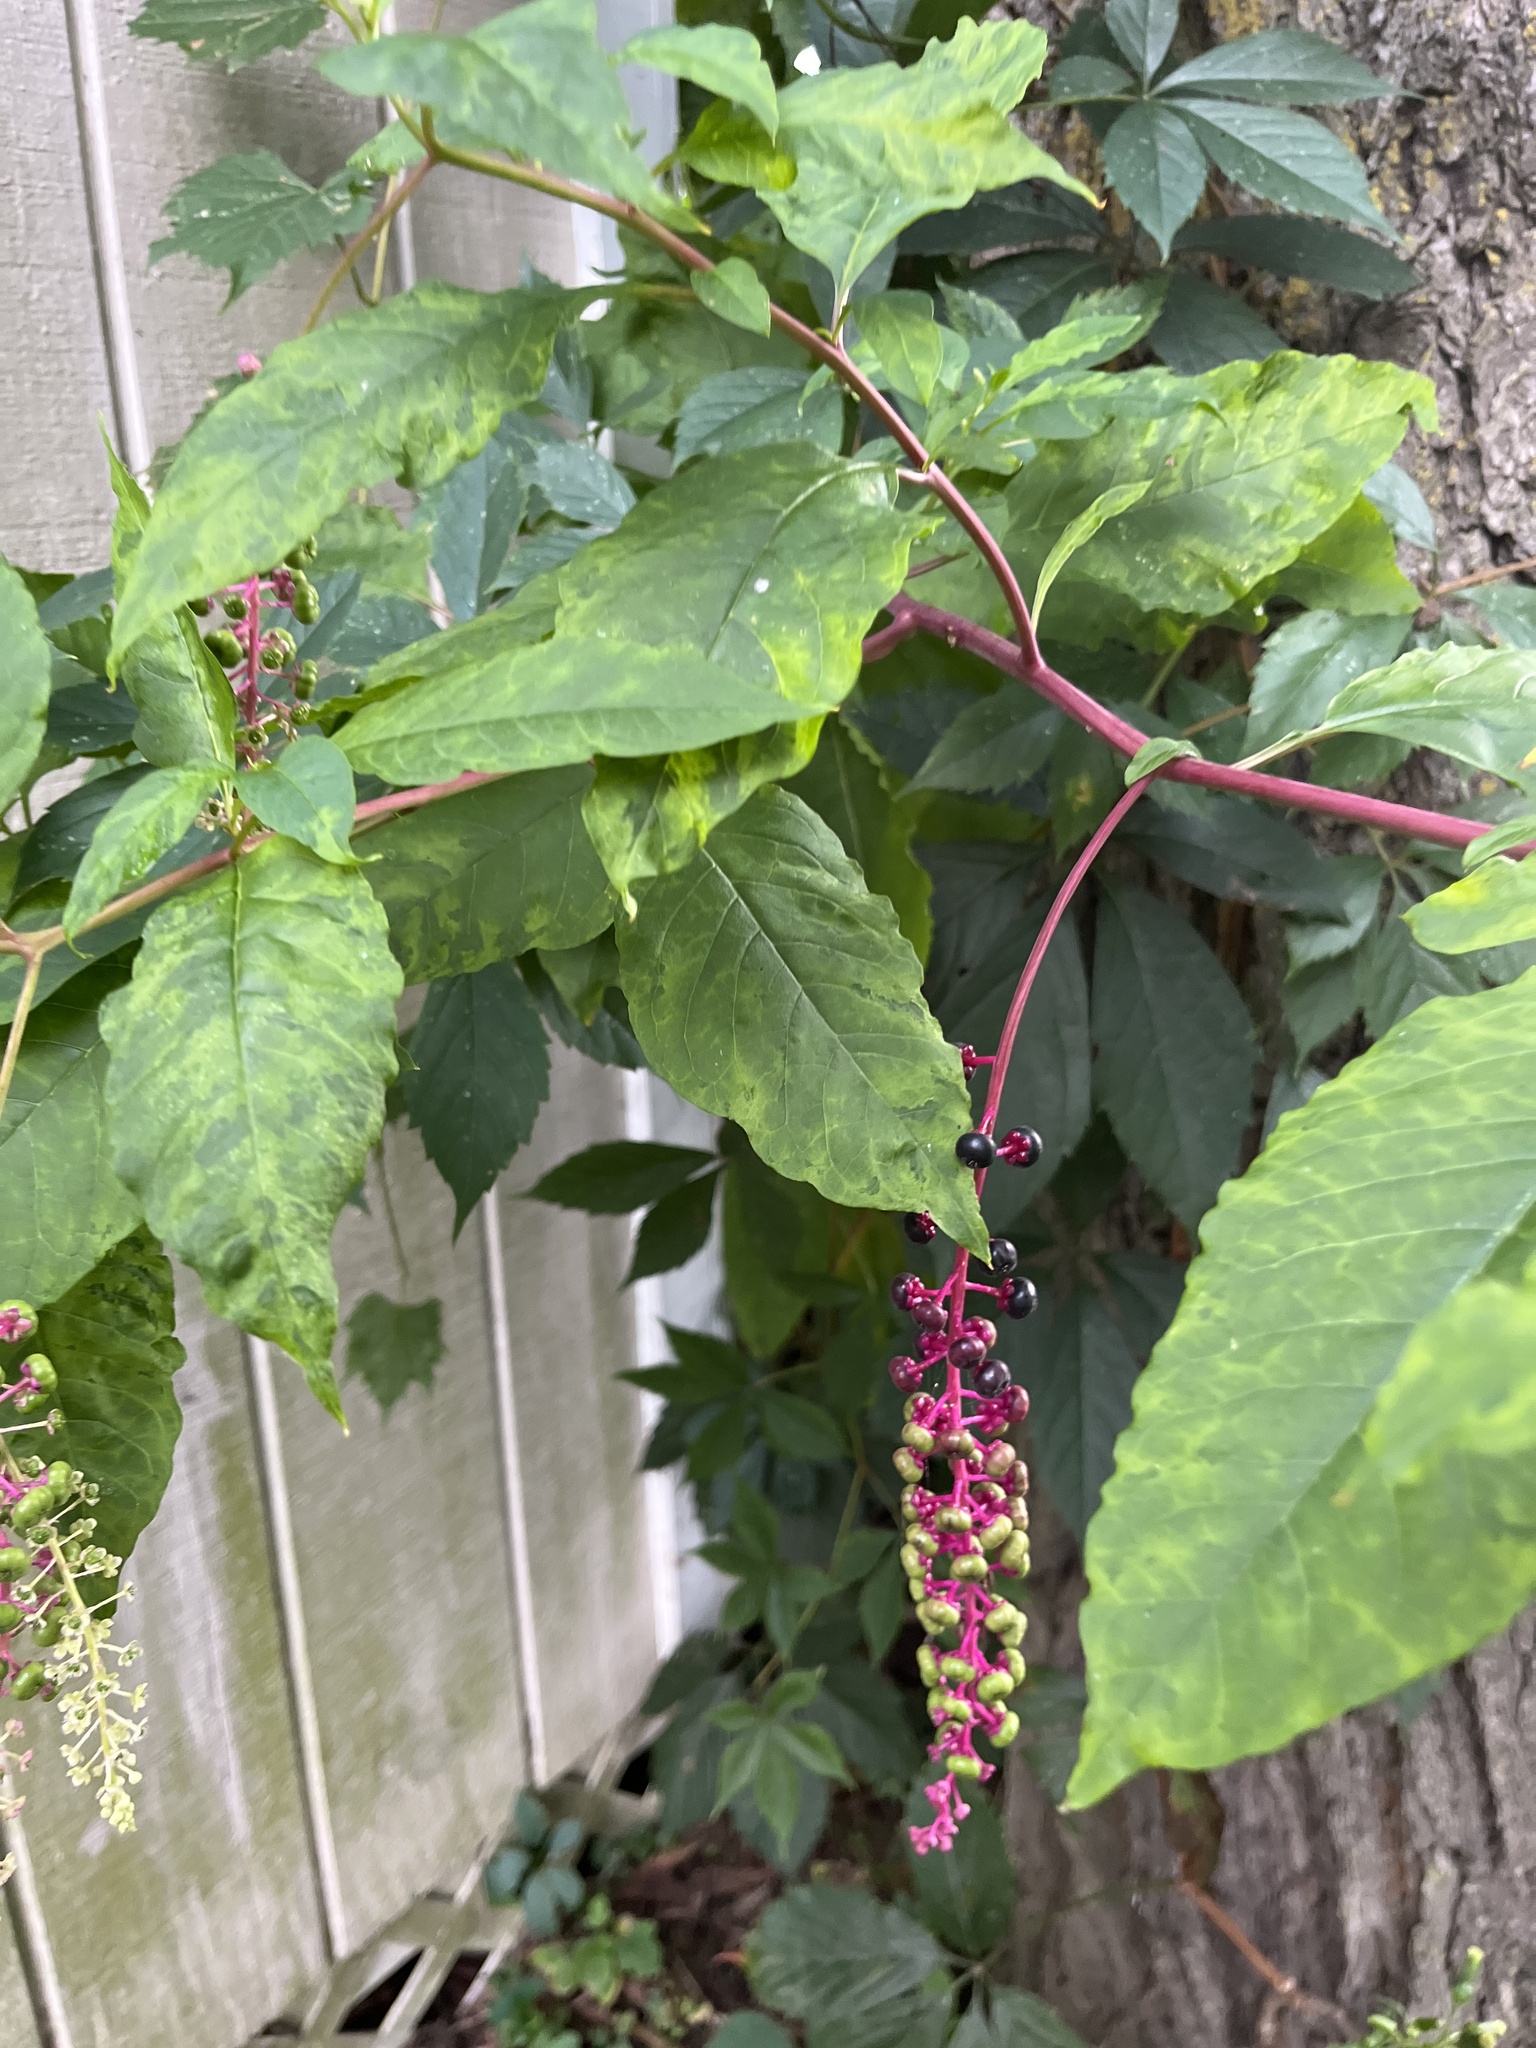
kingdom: Plantae
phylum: Tracheophyta
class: Magnoliopsida
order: Caryophyllales
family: Phytolaccaceae
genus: Phytolacca
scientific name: Phytolacca americana
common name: American pokeweed
